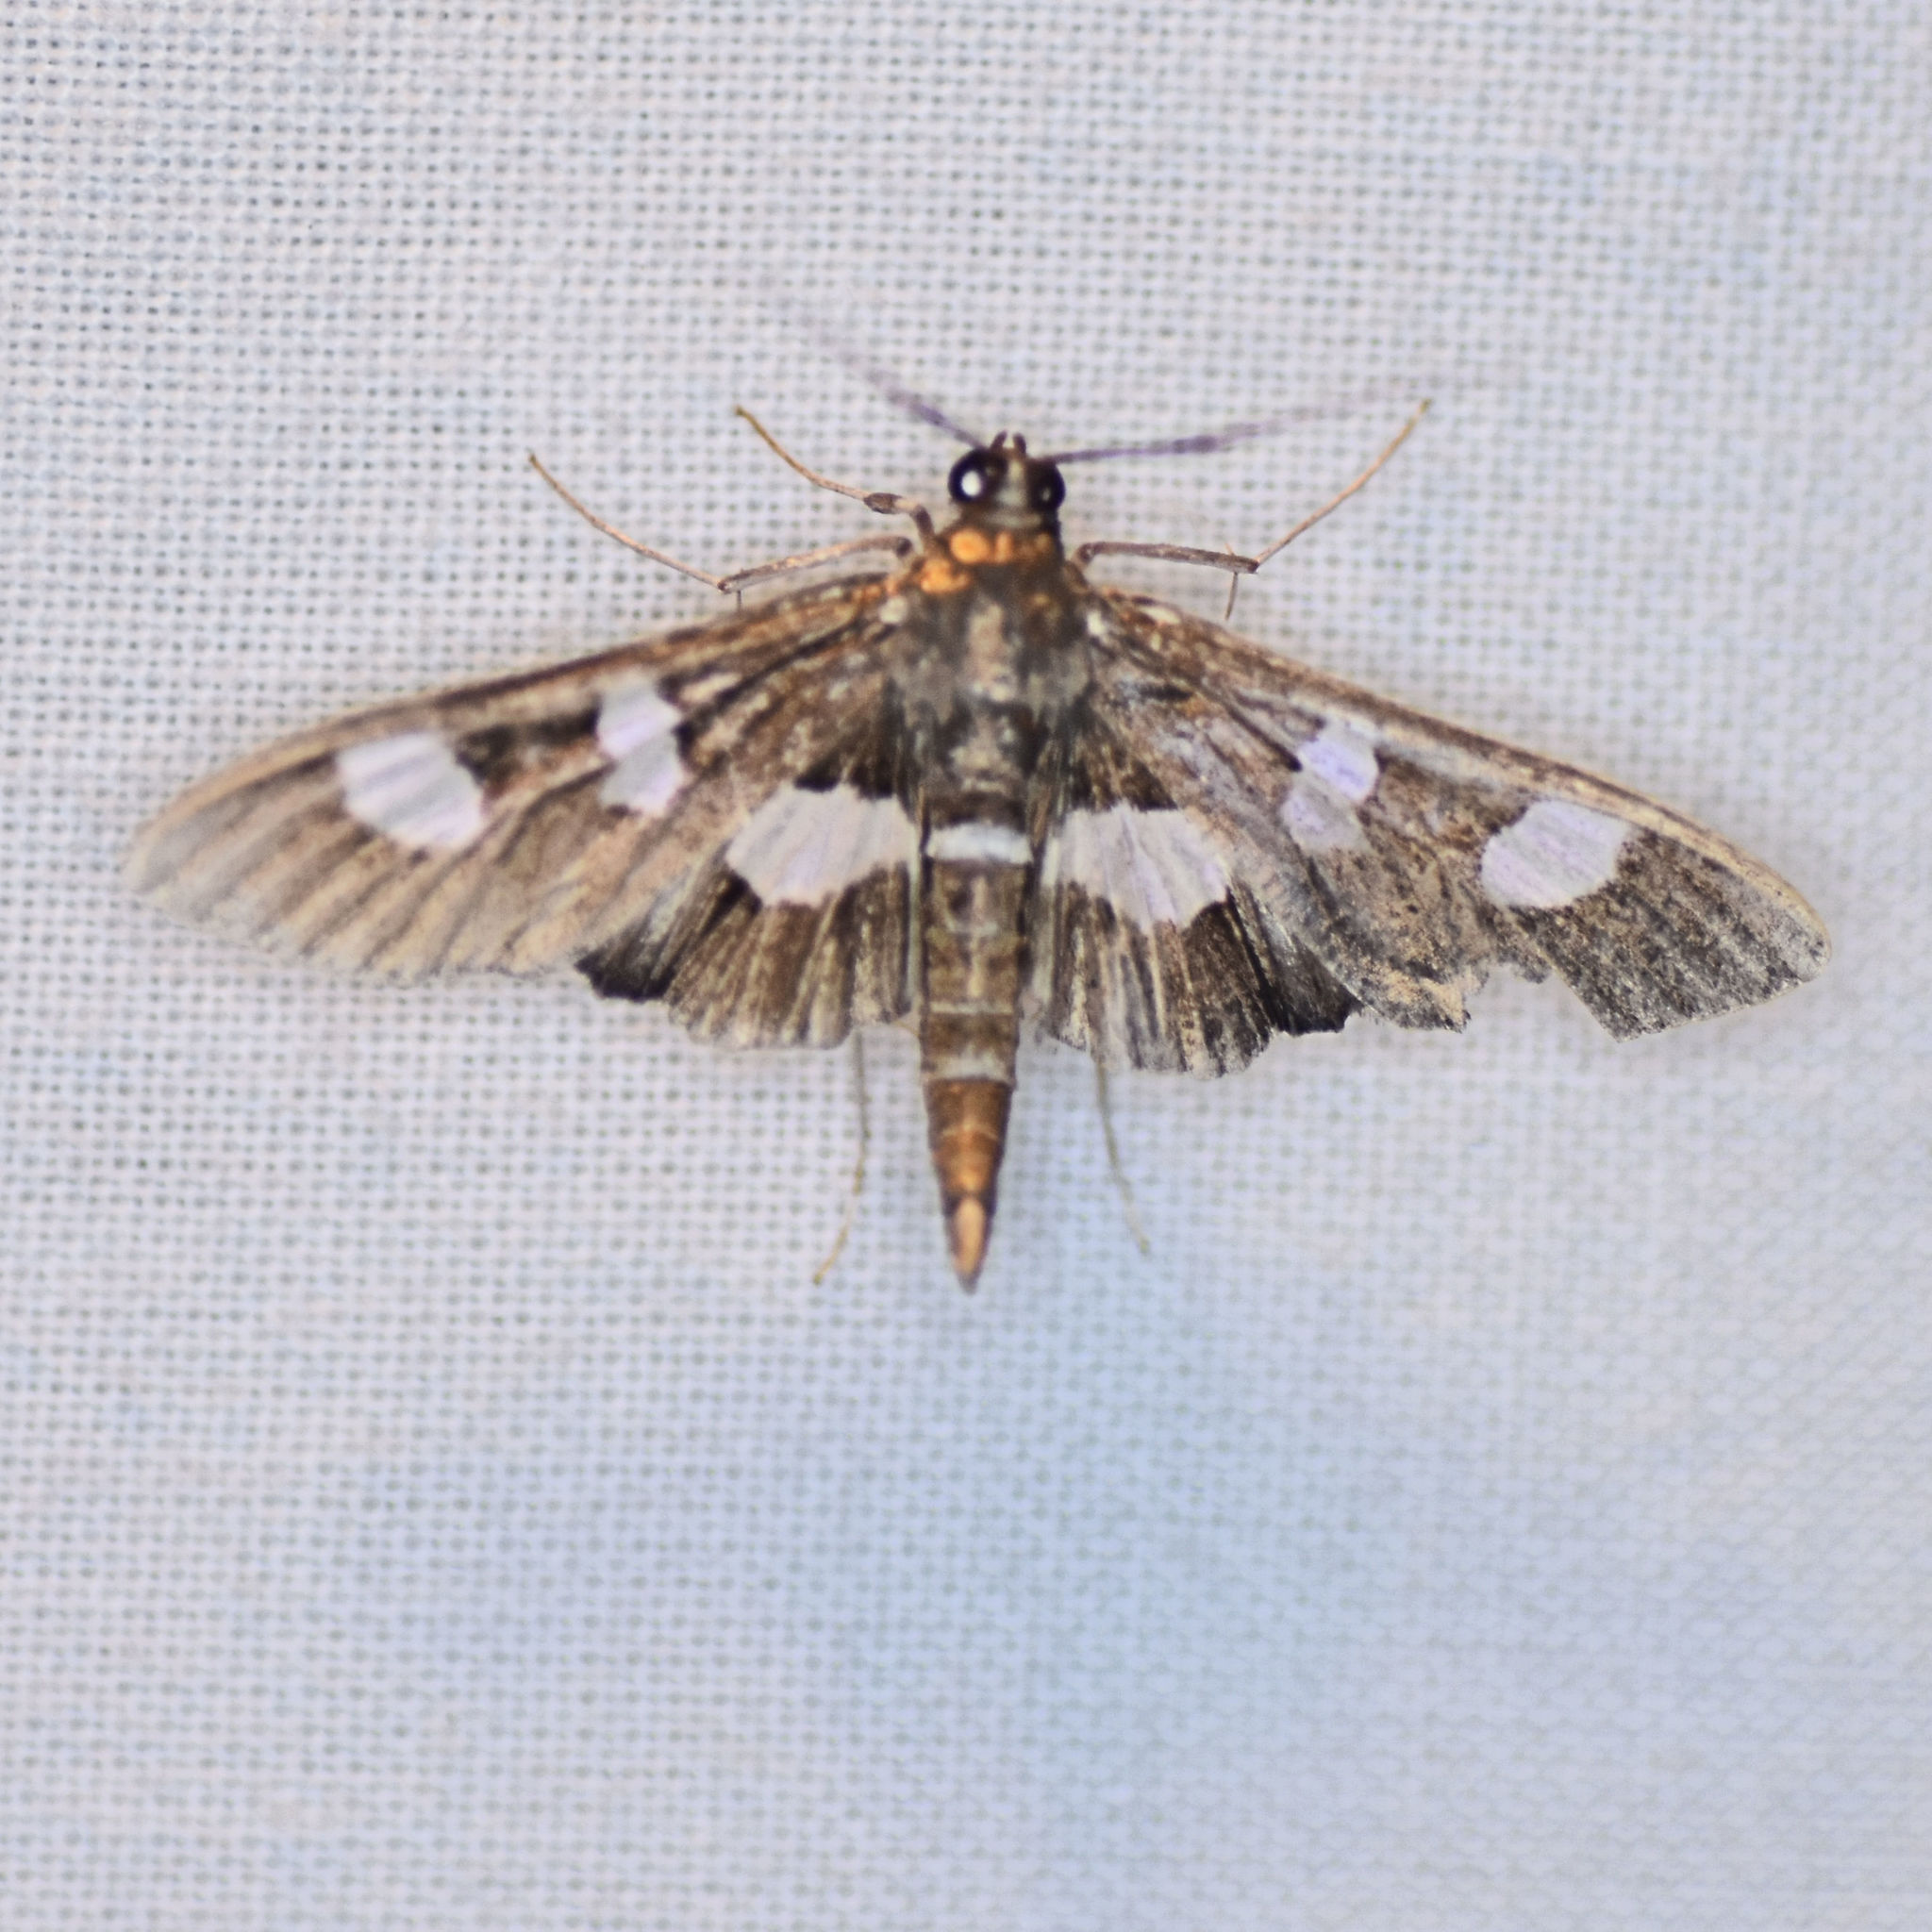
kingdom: Animalia
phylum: Arthropoda
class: Insecta
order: Lepidoptera
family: Crambidae
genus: Desmia
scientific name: Desmia
